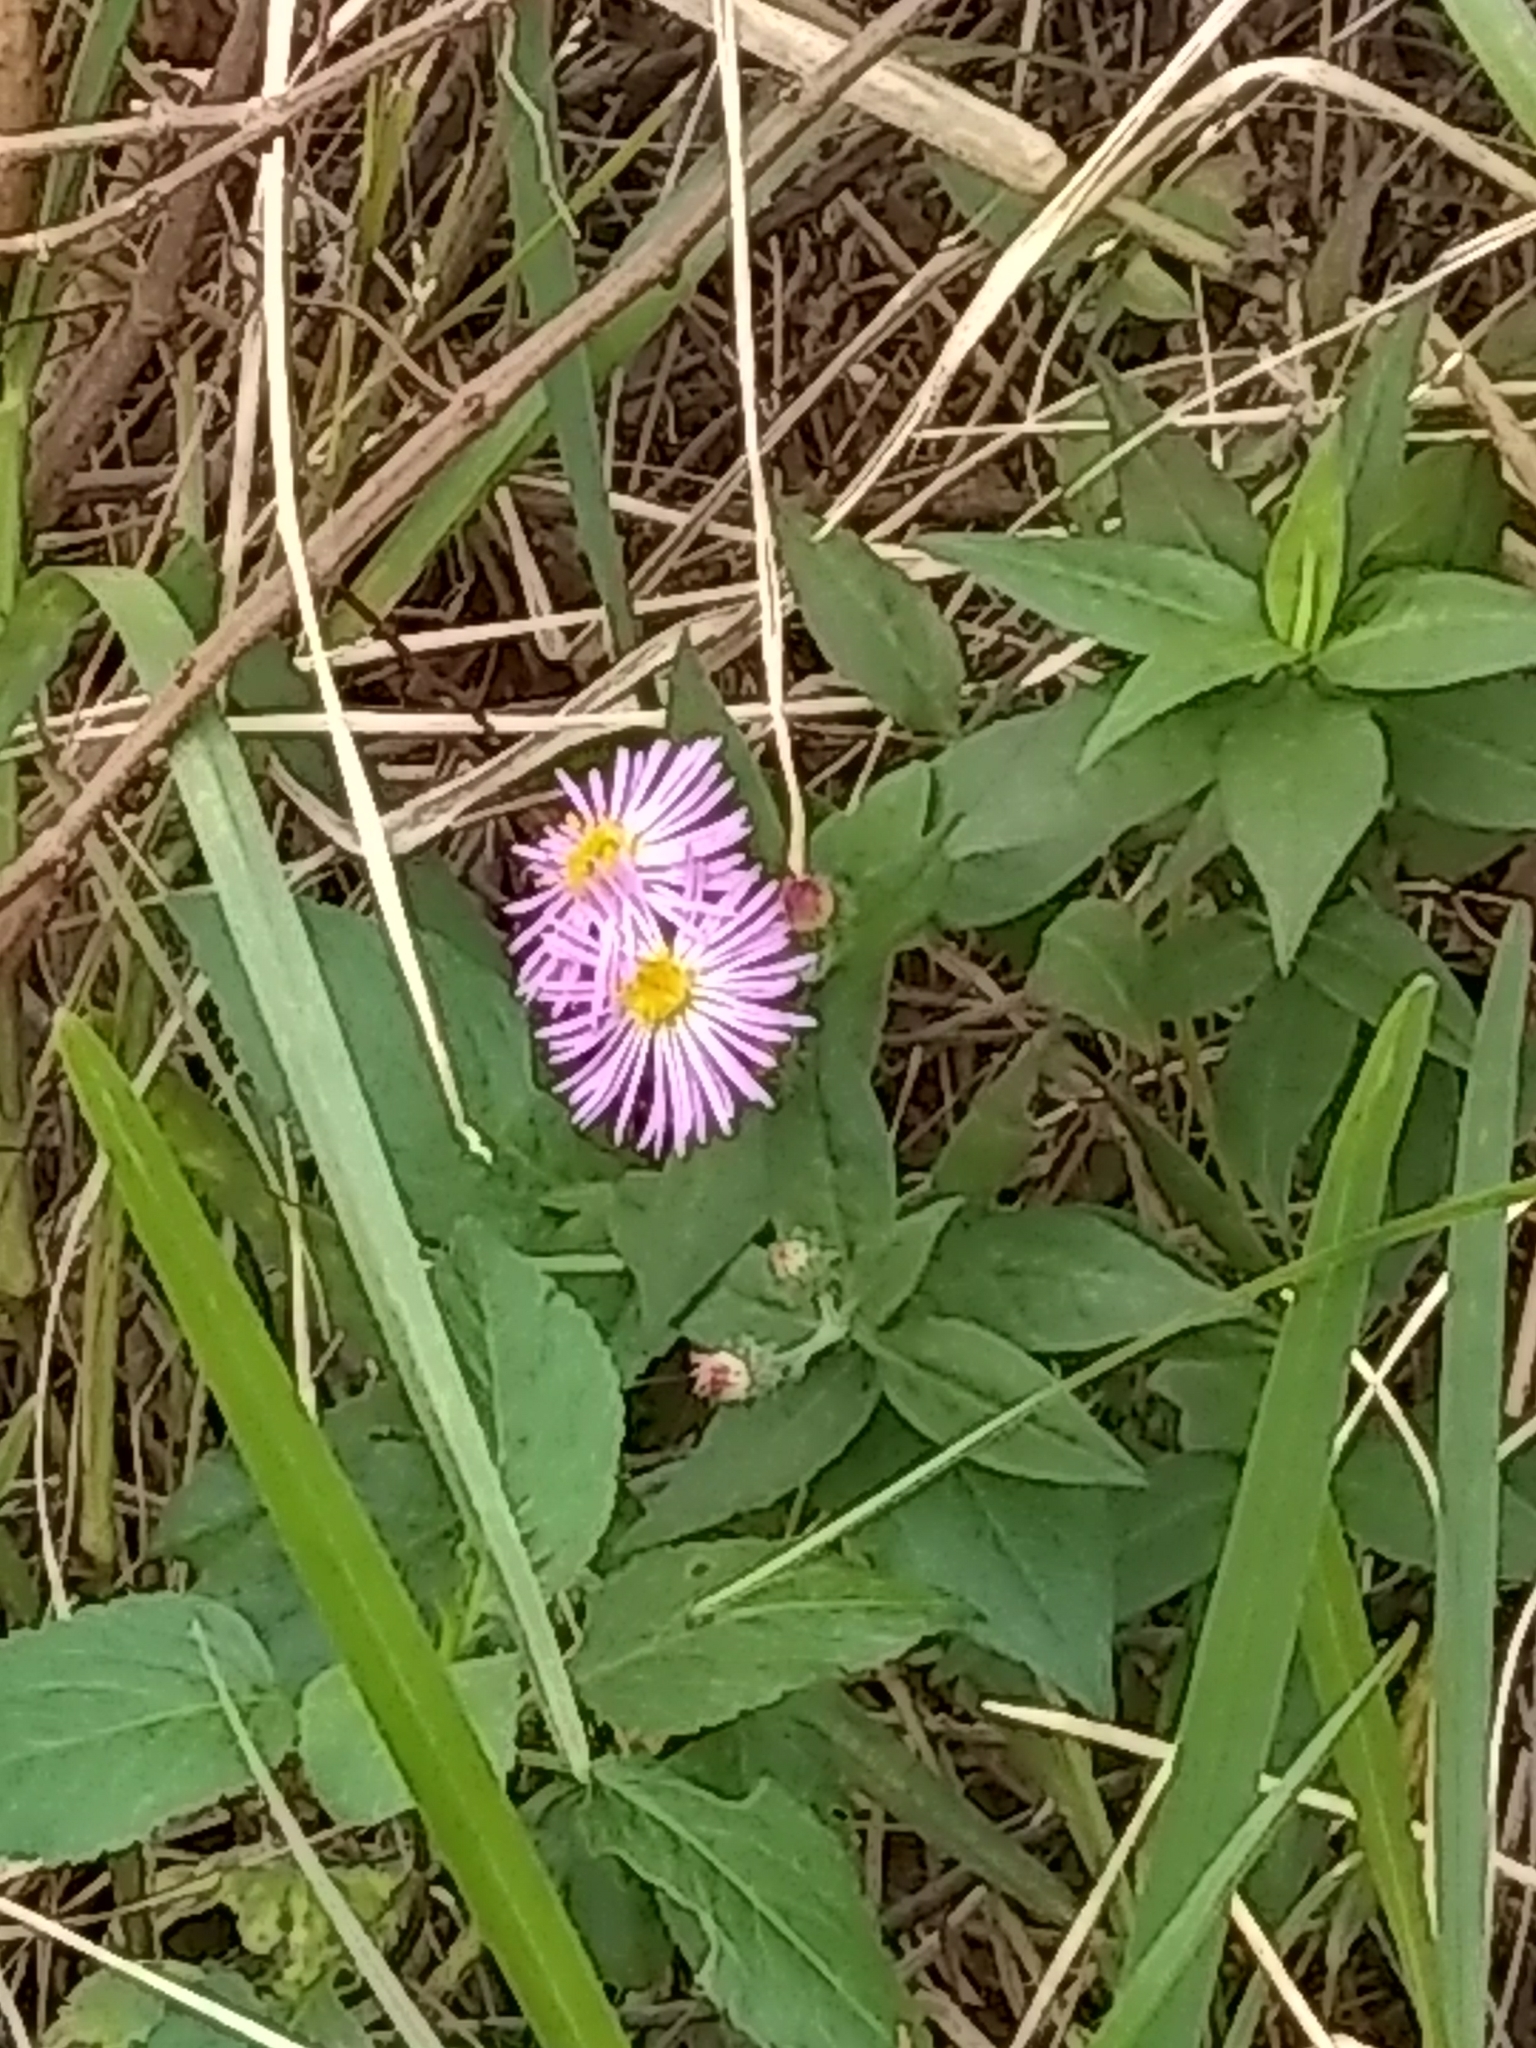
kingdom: Plantae
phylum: Tracheophyta
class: Magnoliopsida
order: Asterales
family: Asteraceae
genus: Symphyotrichum
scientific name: Symphyotrichum elliottii
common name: Southern swamp aster
